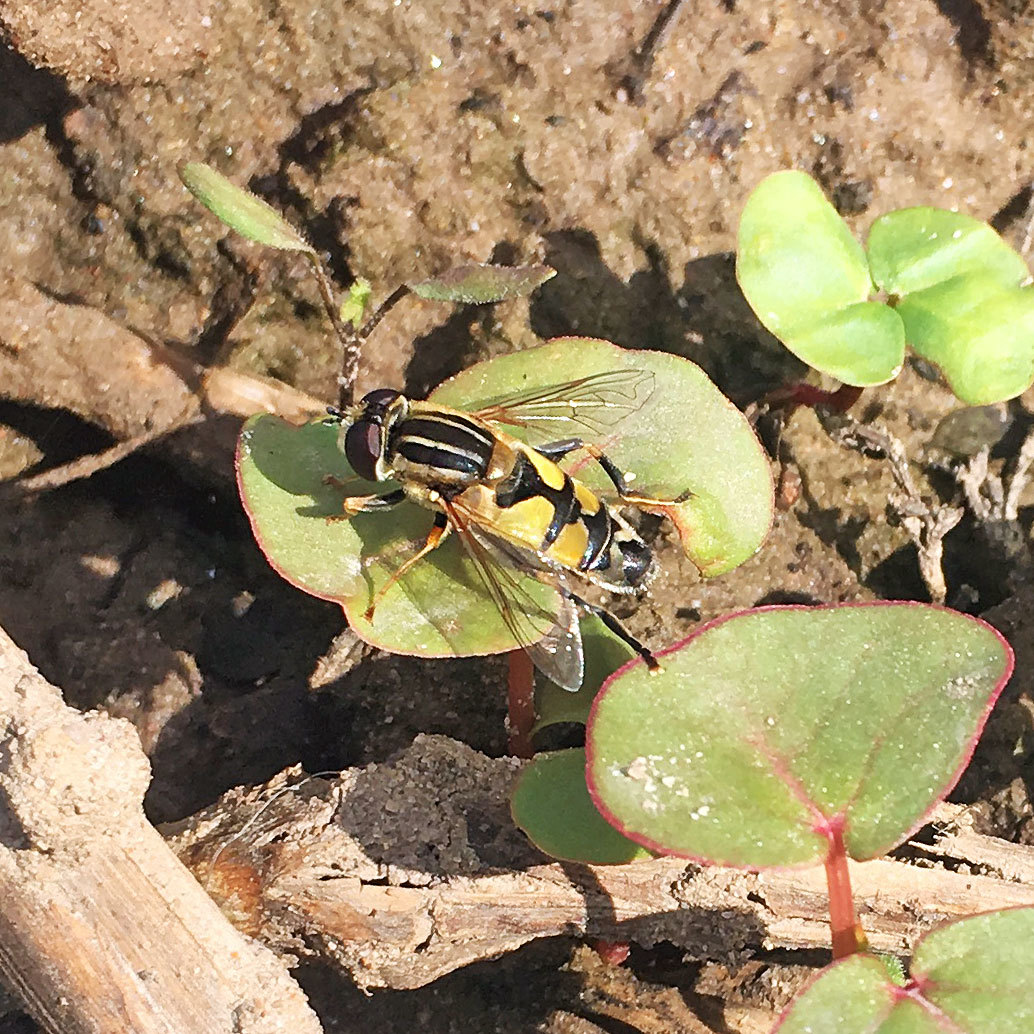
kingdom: Animalia
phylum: Arthropoda
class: Insecta
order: Diptera
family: Syrphidae
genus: Helophilus
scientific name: Helophilus trivittatus
